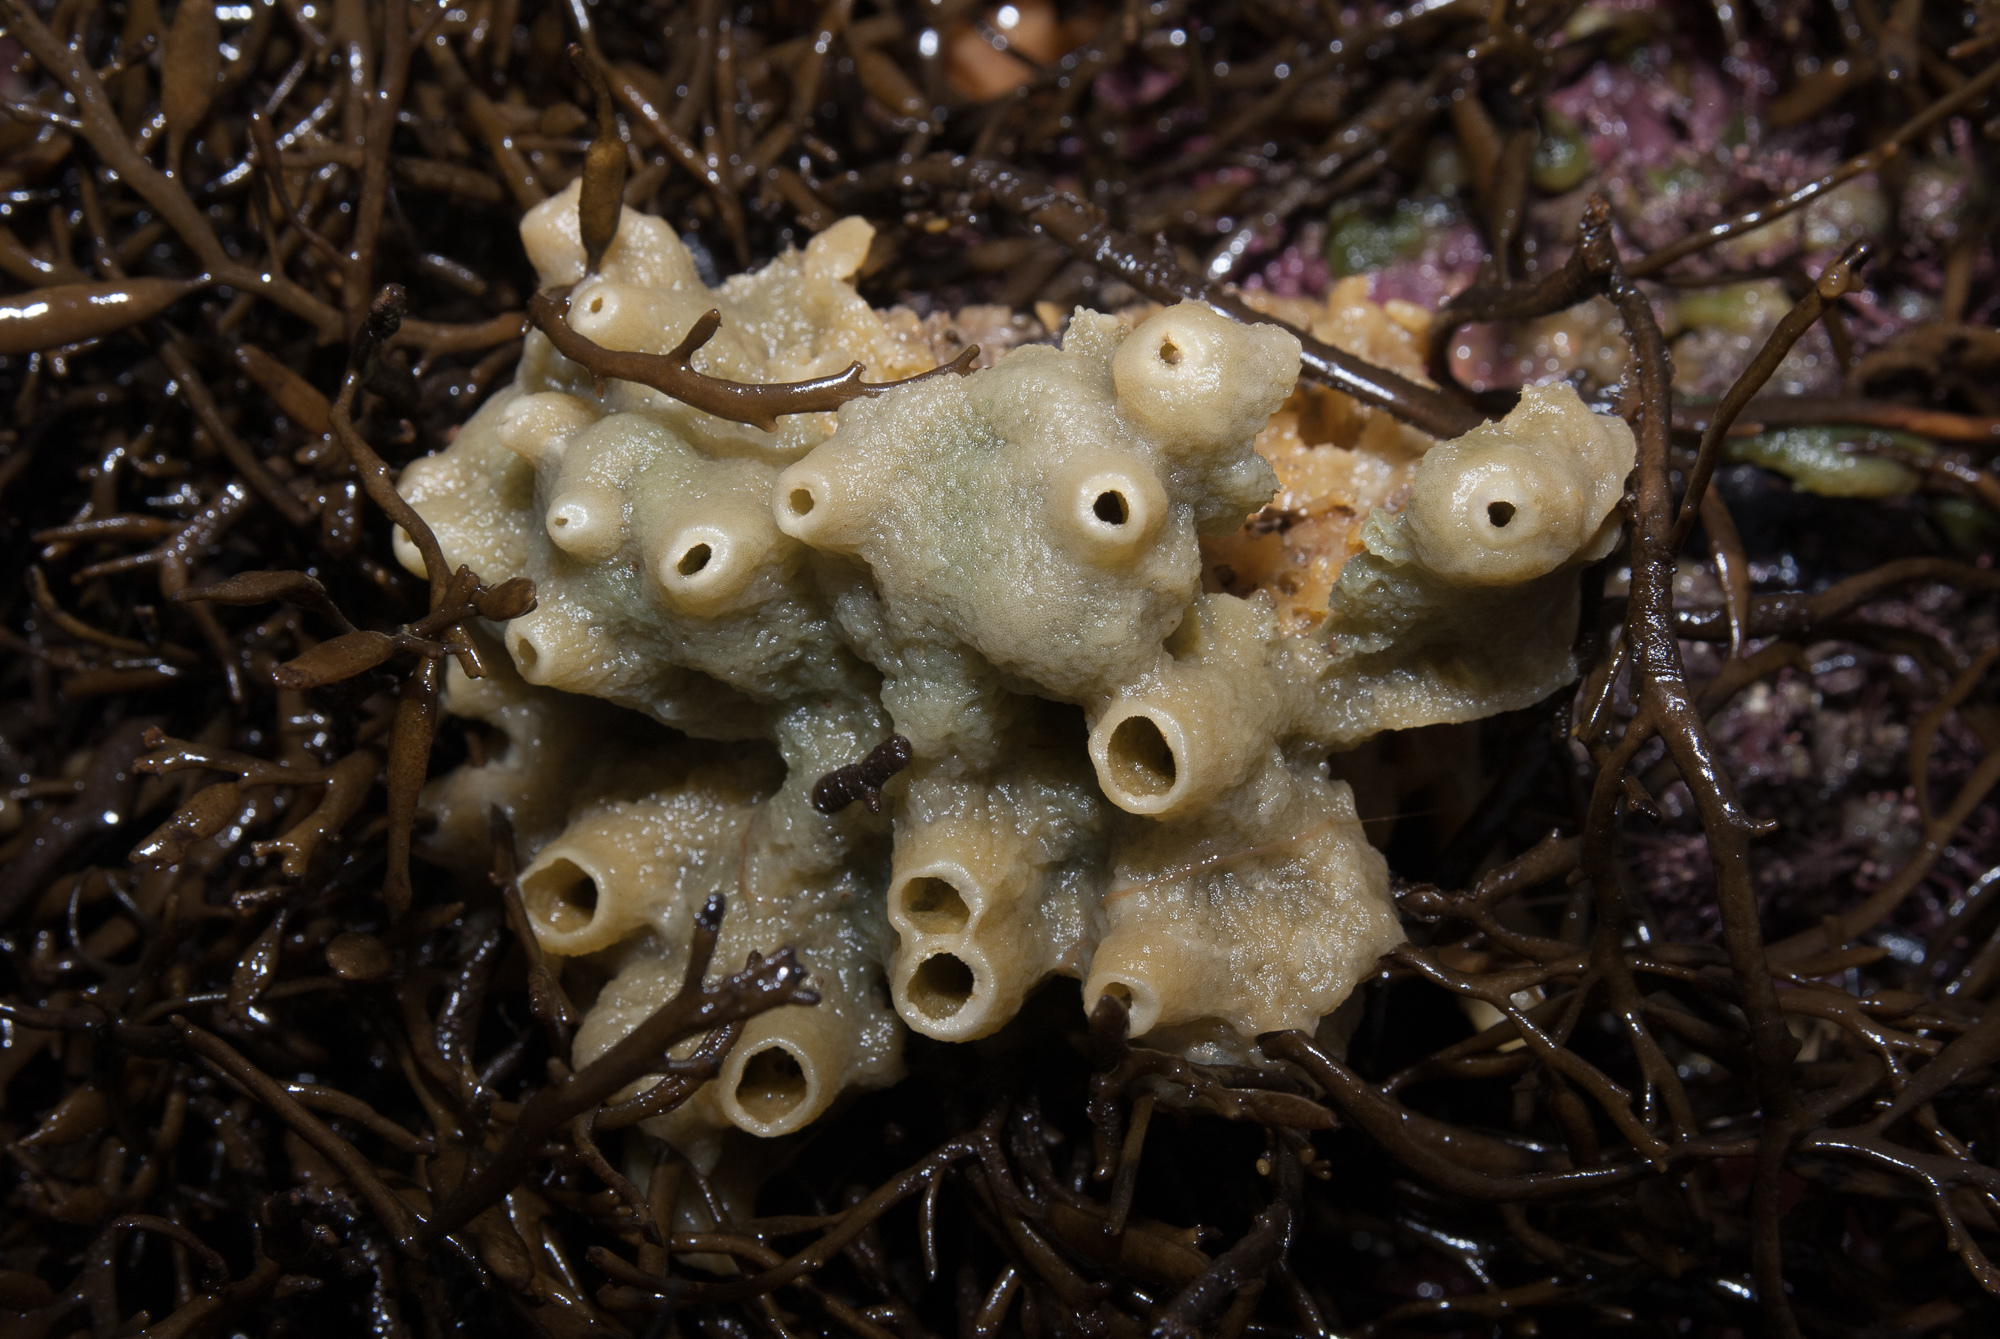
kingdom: Animalia
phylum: Porifera
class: Demospongiae
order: Suberitida
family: Halichondriidae
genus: Halichondria
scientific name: Halichondria panicea
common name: Breadcrumb sponge
